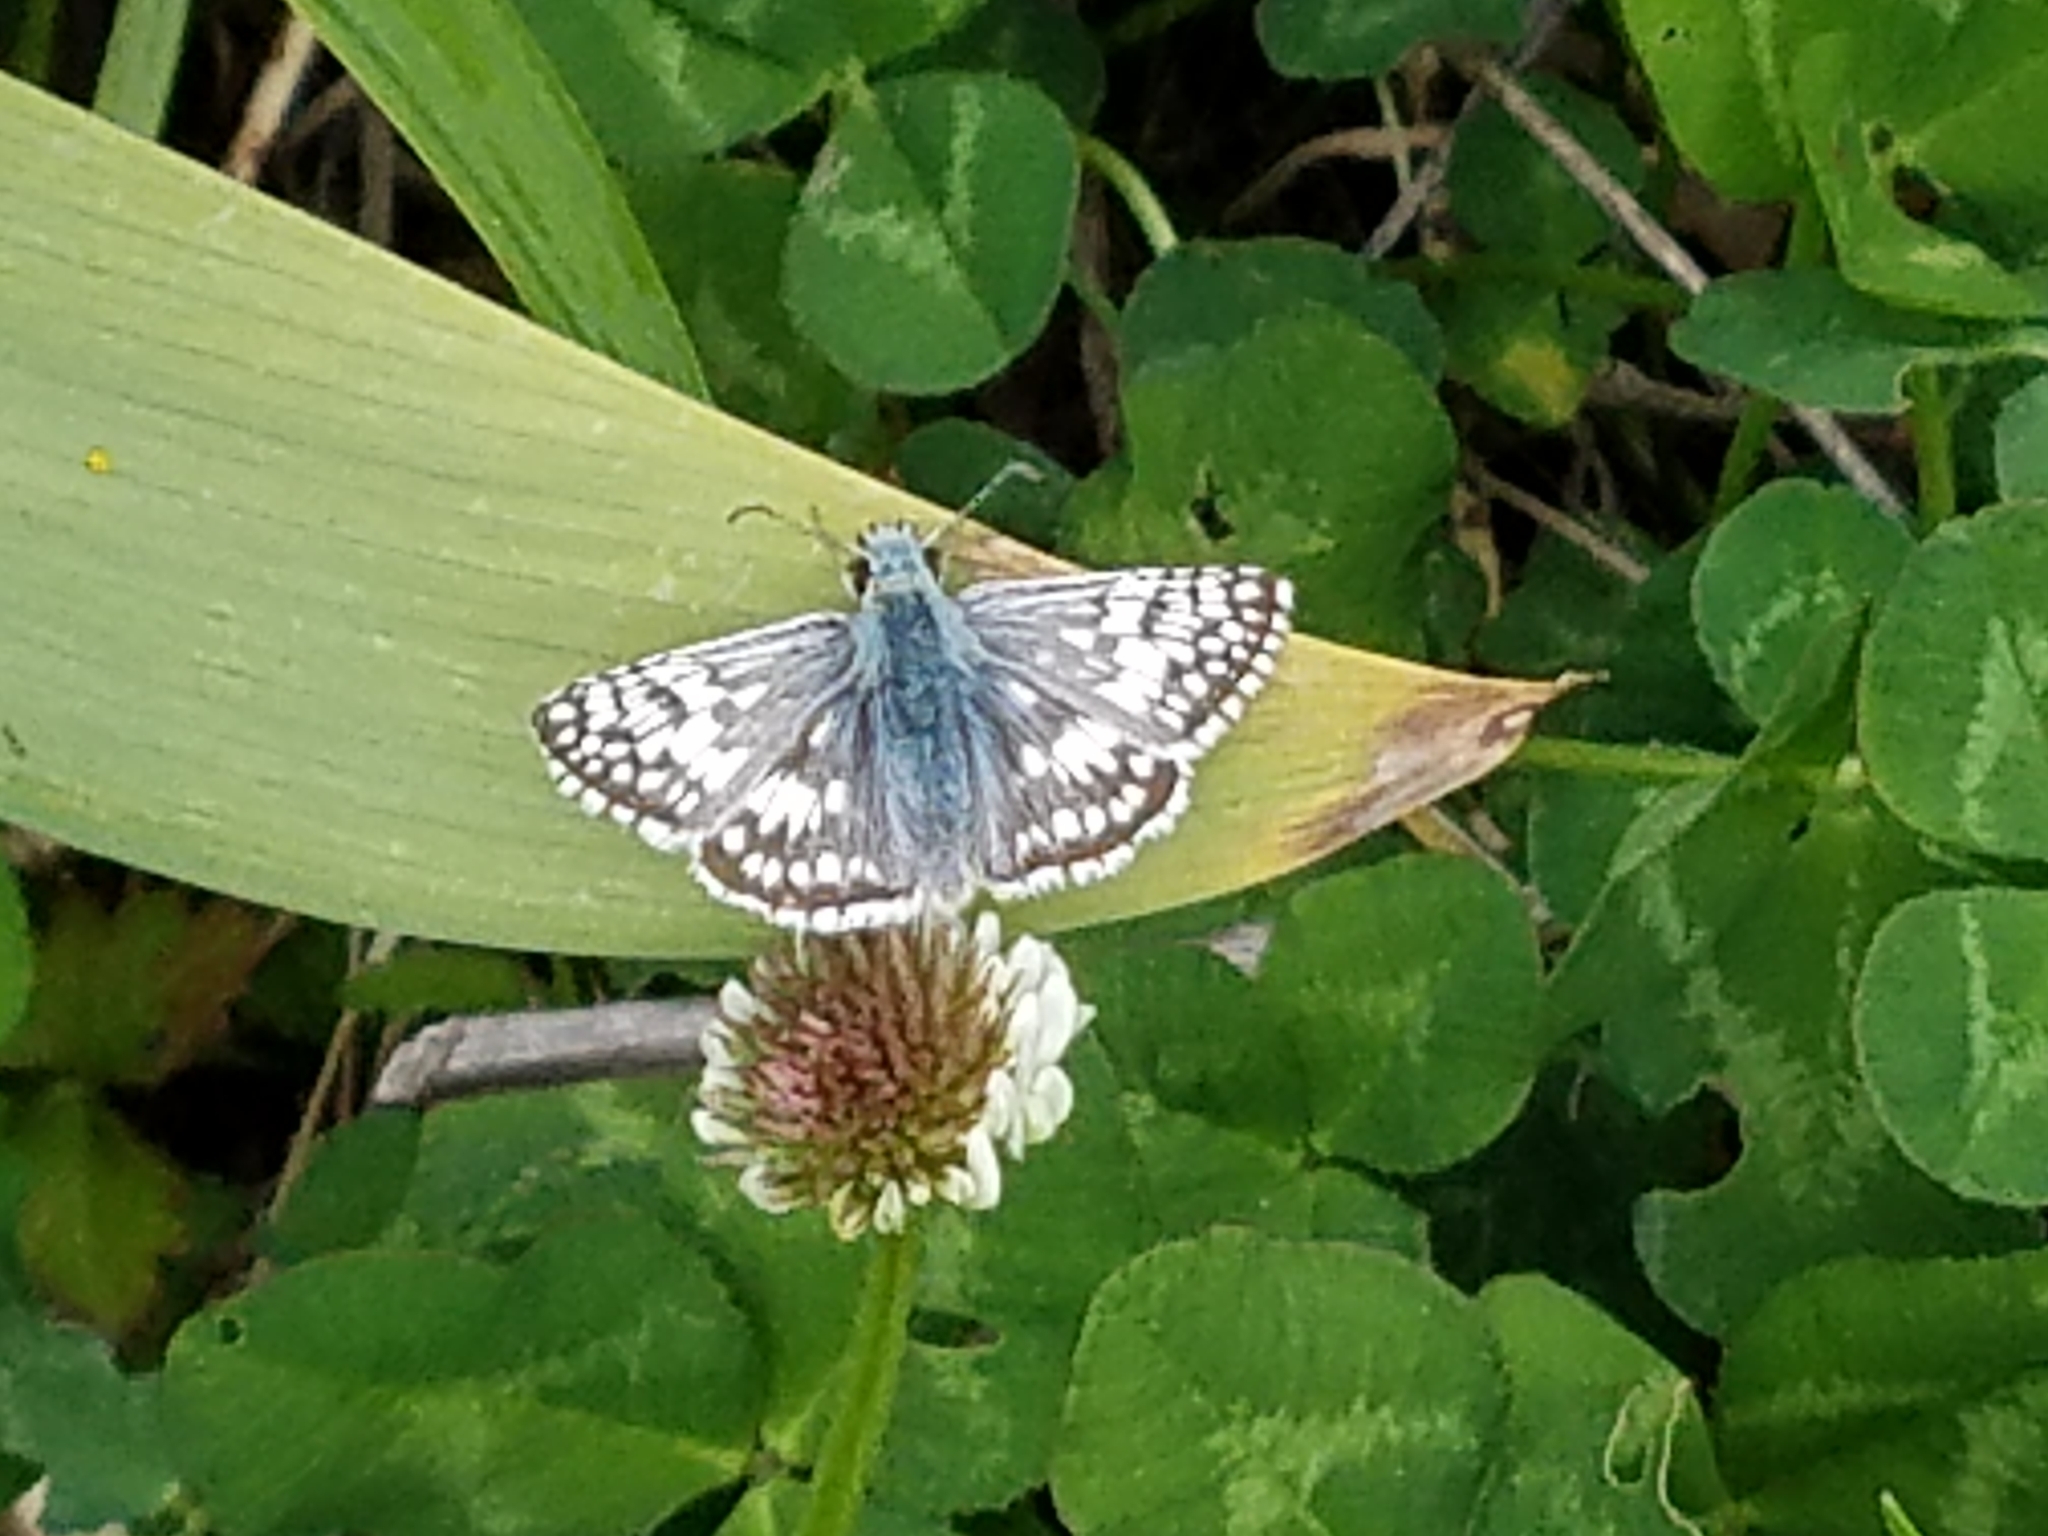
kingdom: Animalia
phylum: Arthropoda
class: Insecta
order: Lepidoptera
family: Hesperiidae
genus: Burnsius
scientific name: Burnsius communis
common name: Common checkered-skipper
